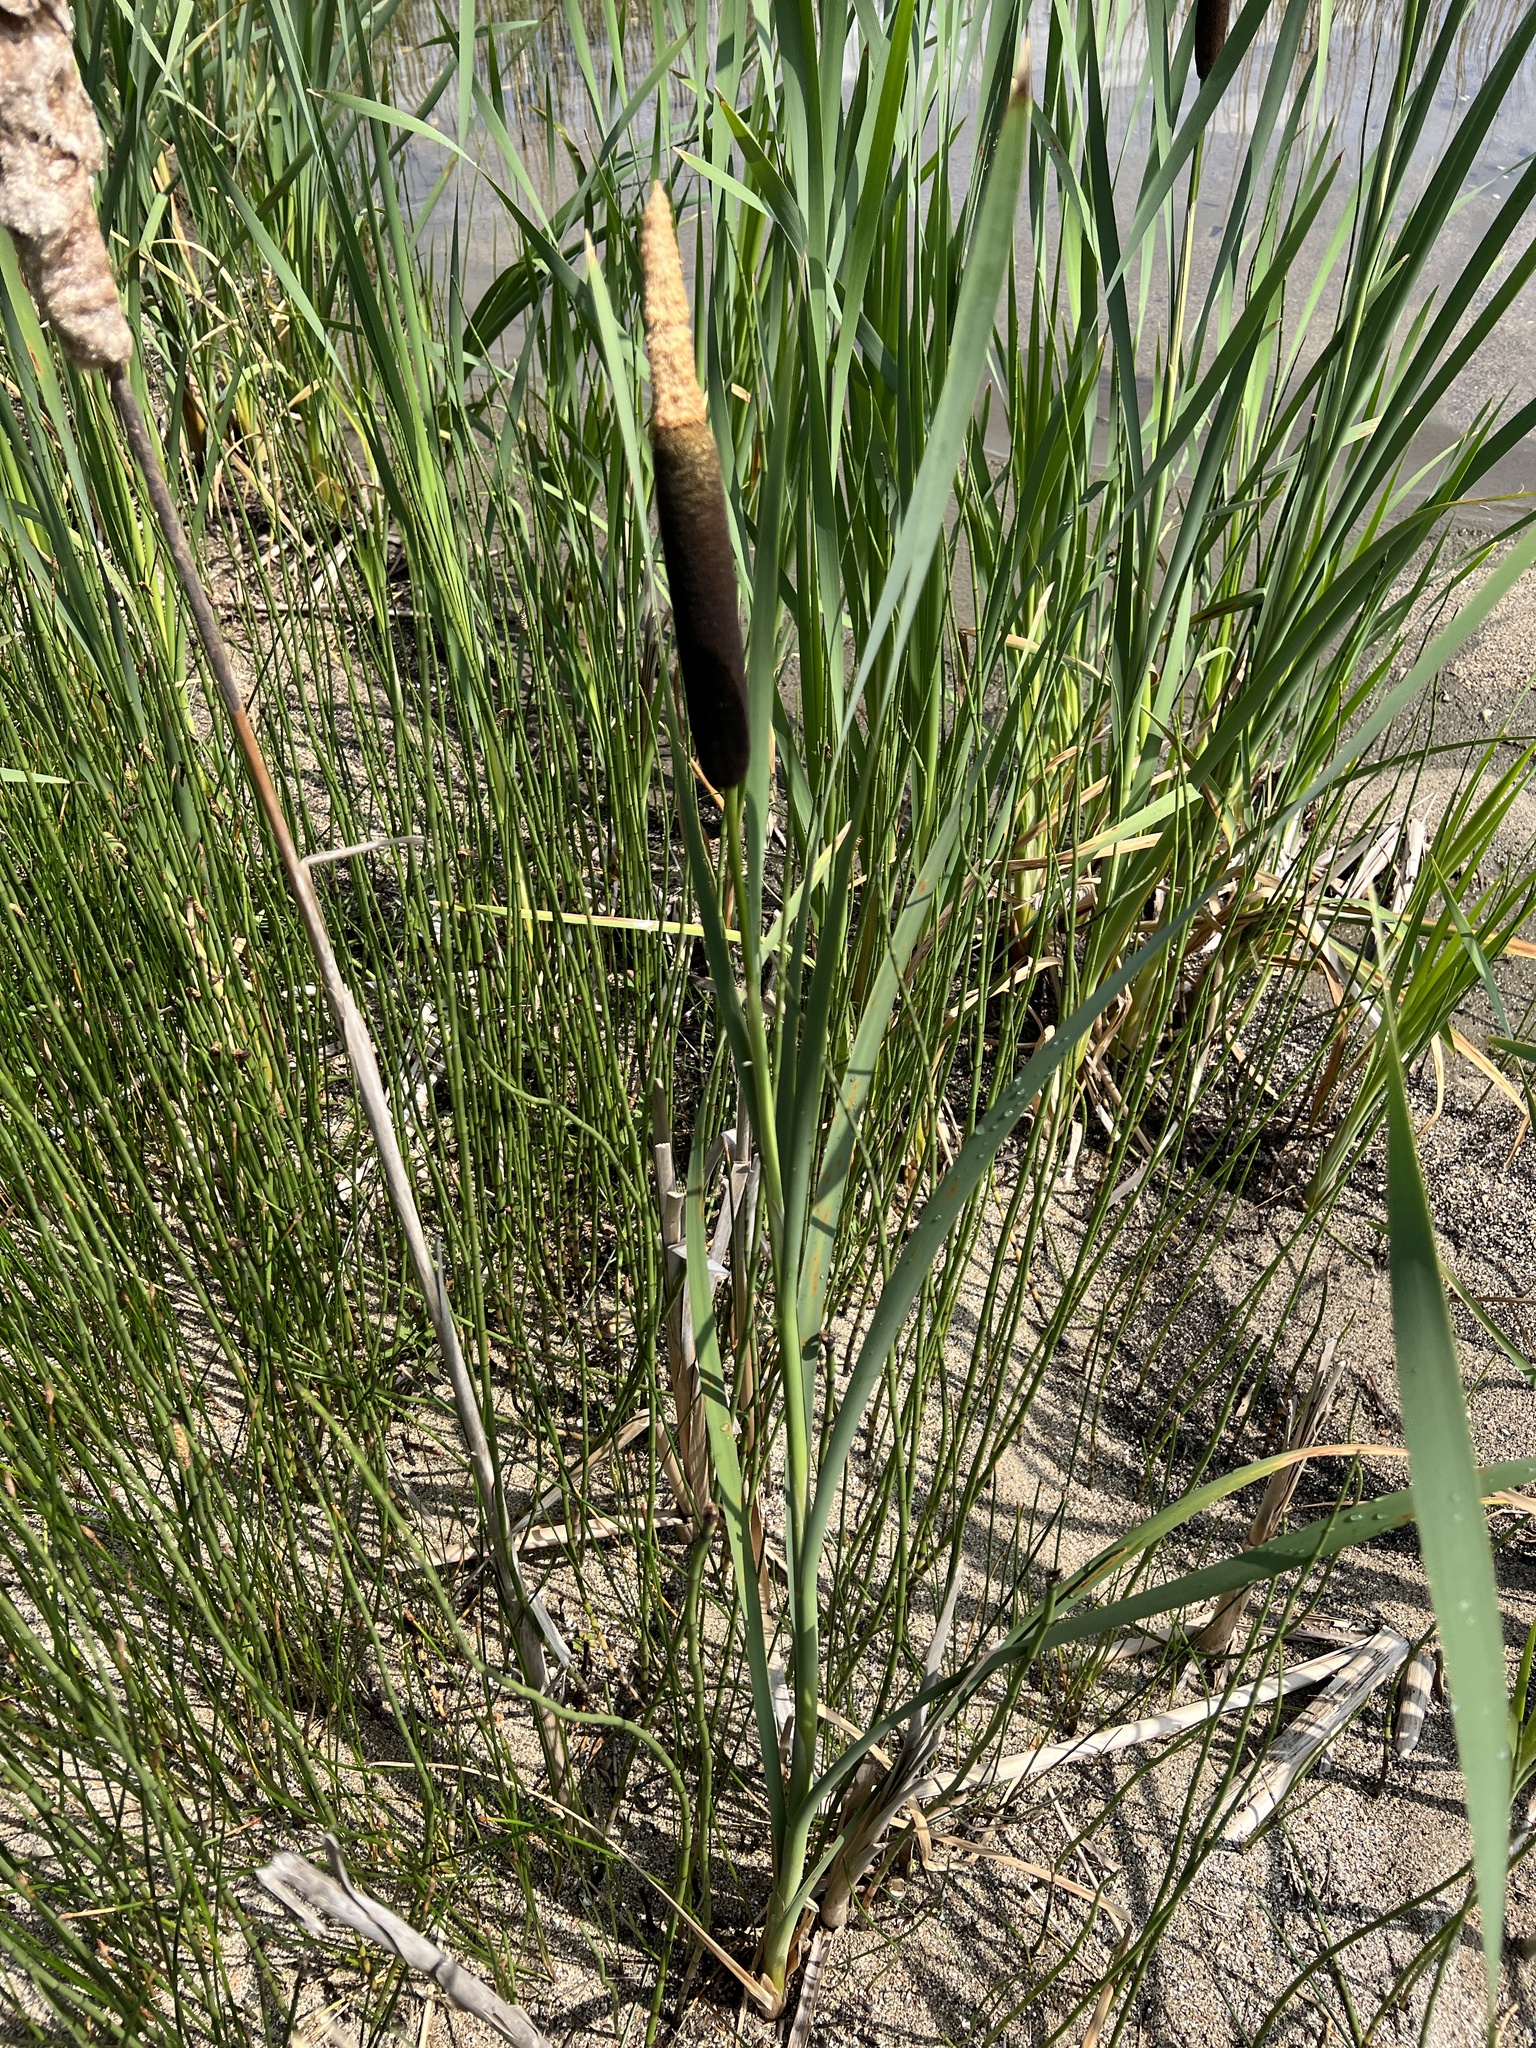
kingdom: Plantae
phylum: Tracheophyta
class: Liliopsida
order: Poales
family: Typhaceae
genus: Typha
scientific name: Typha latifolia
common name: Broadleaf cattail
